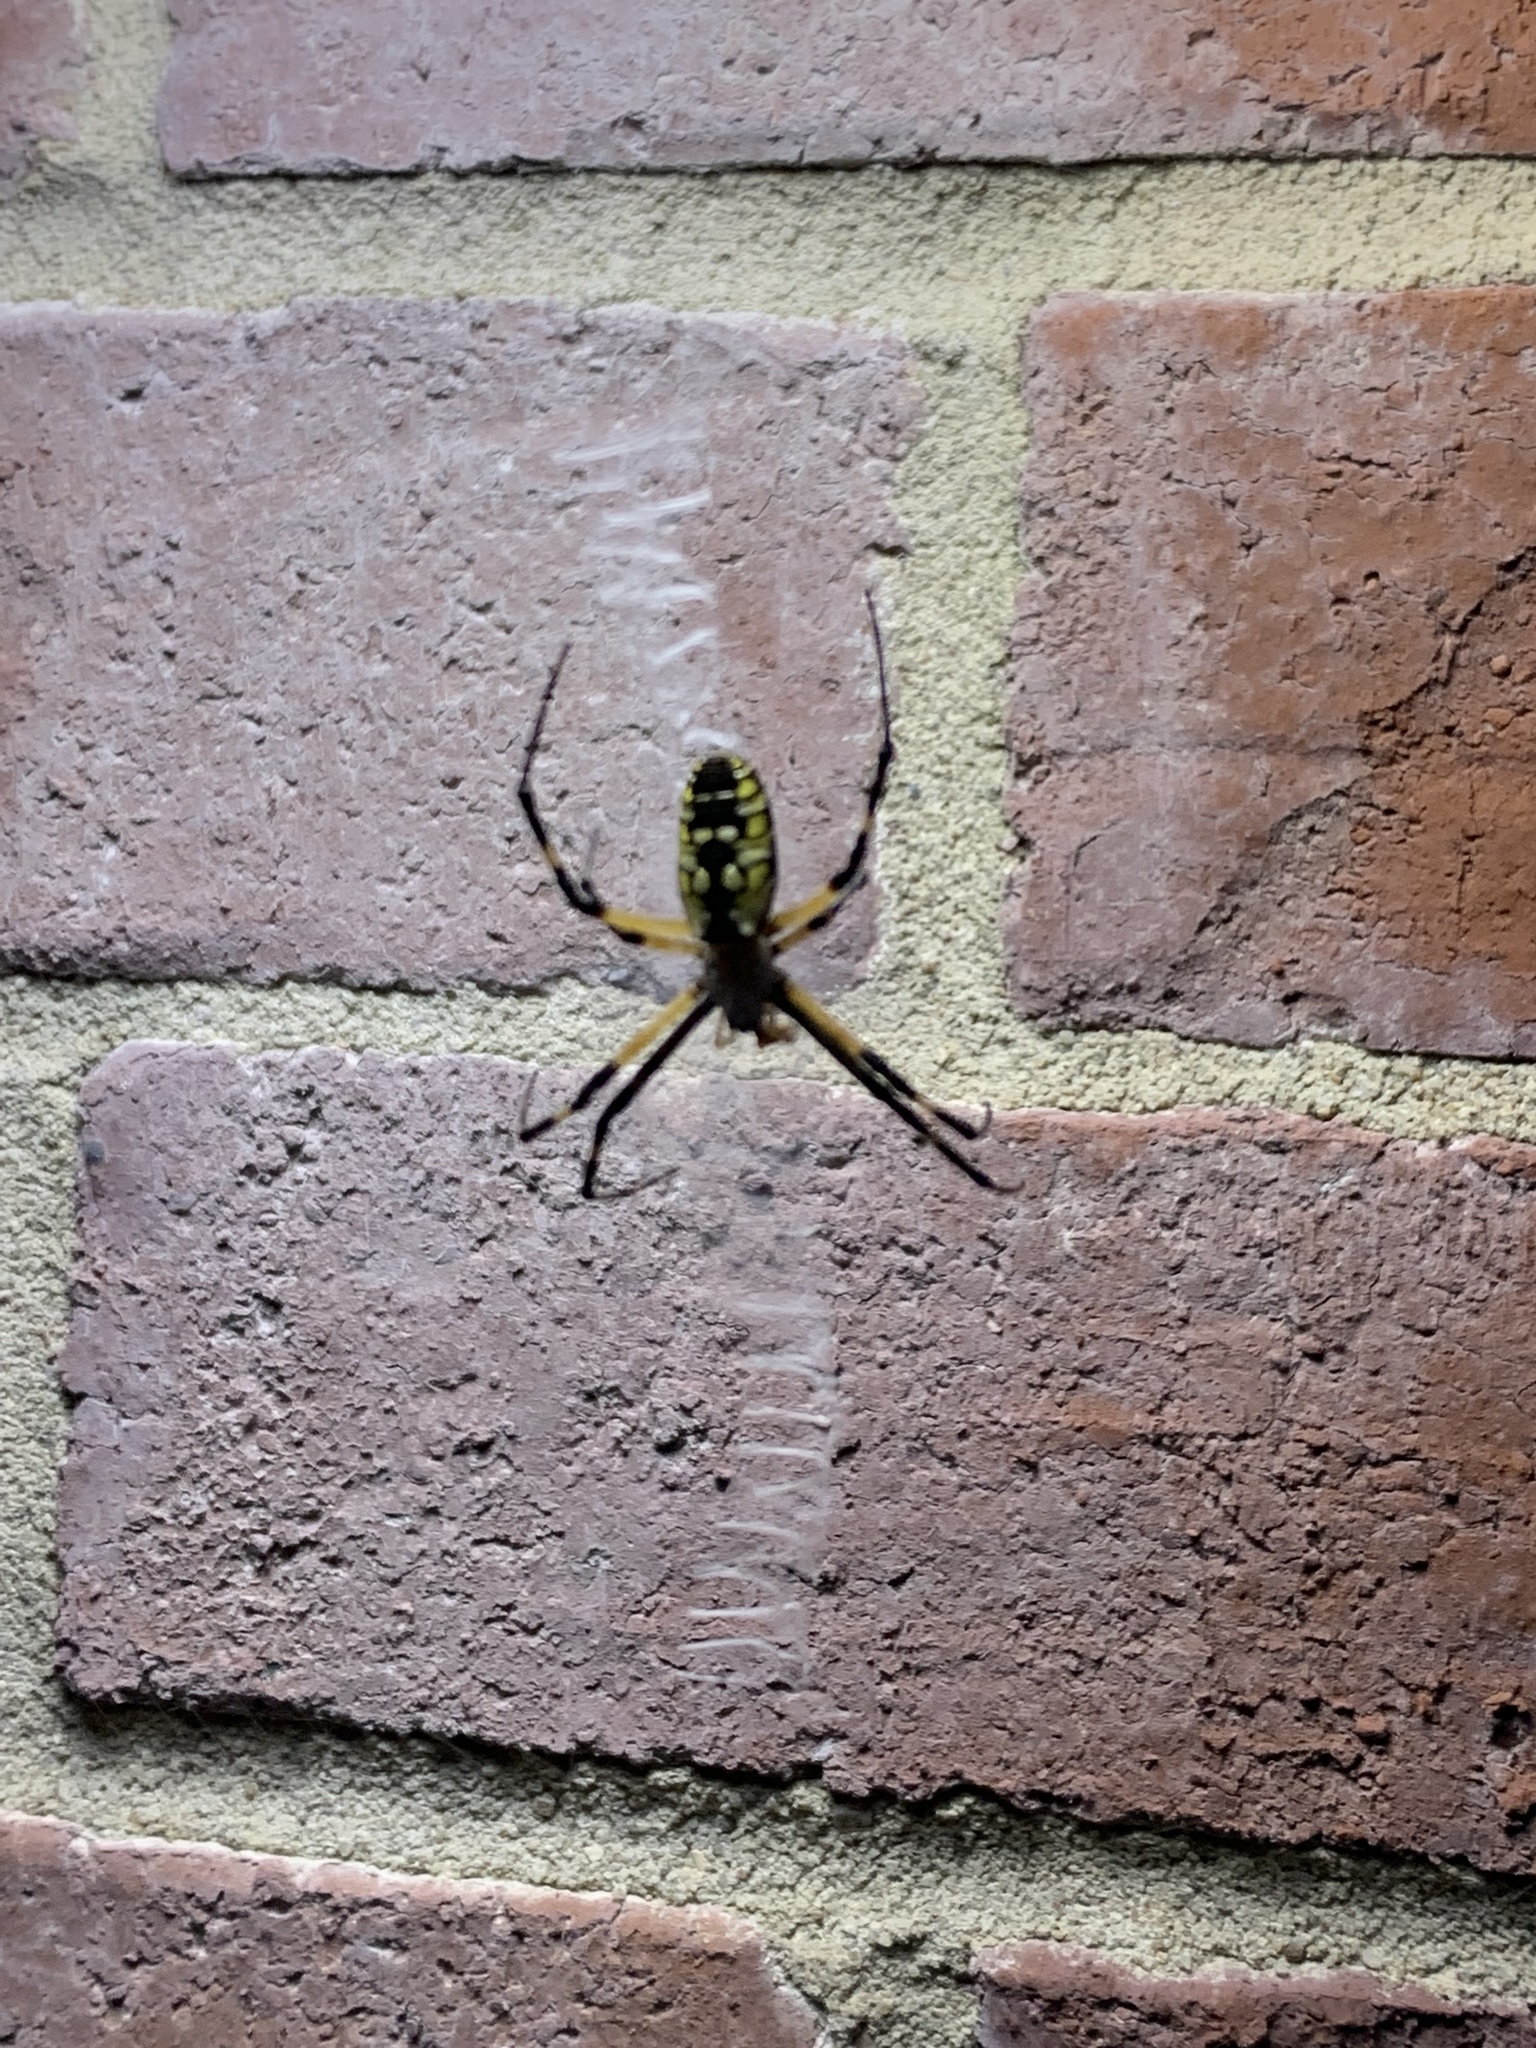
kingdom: Animalia
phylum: Arthropoda
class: Arachnida
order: Araneae
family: Araneidae
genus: Argiope
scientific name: Argiope aurantia
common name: Orb weavers
